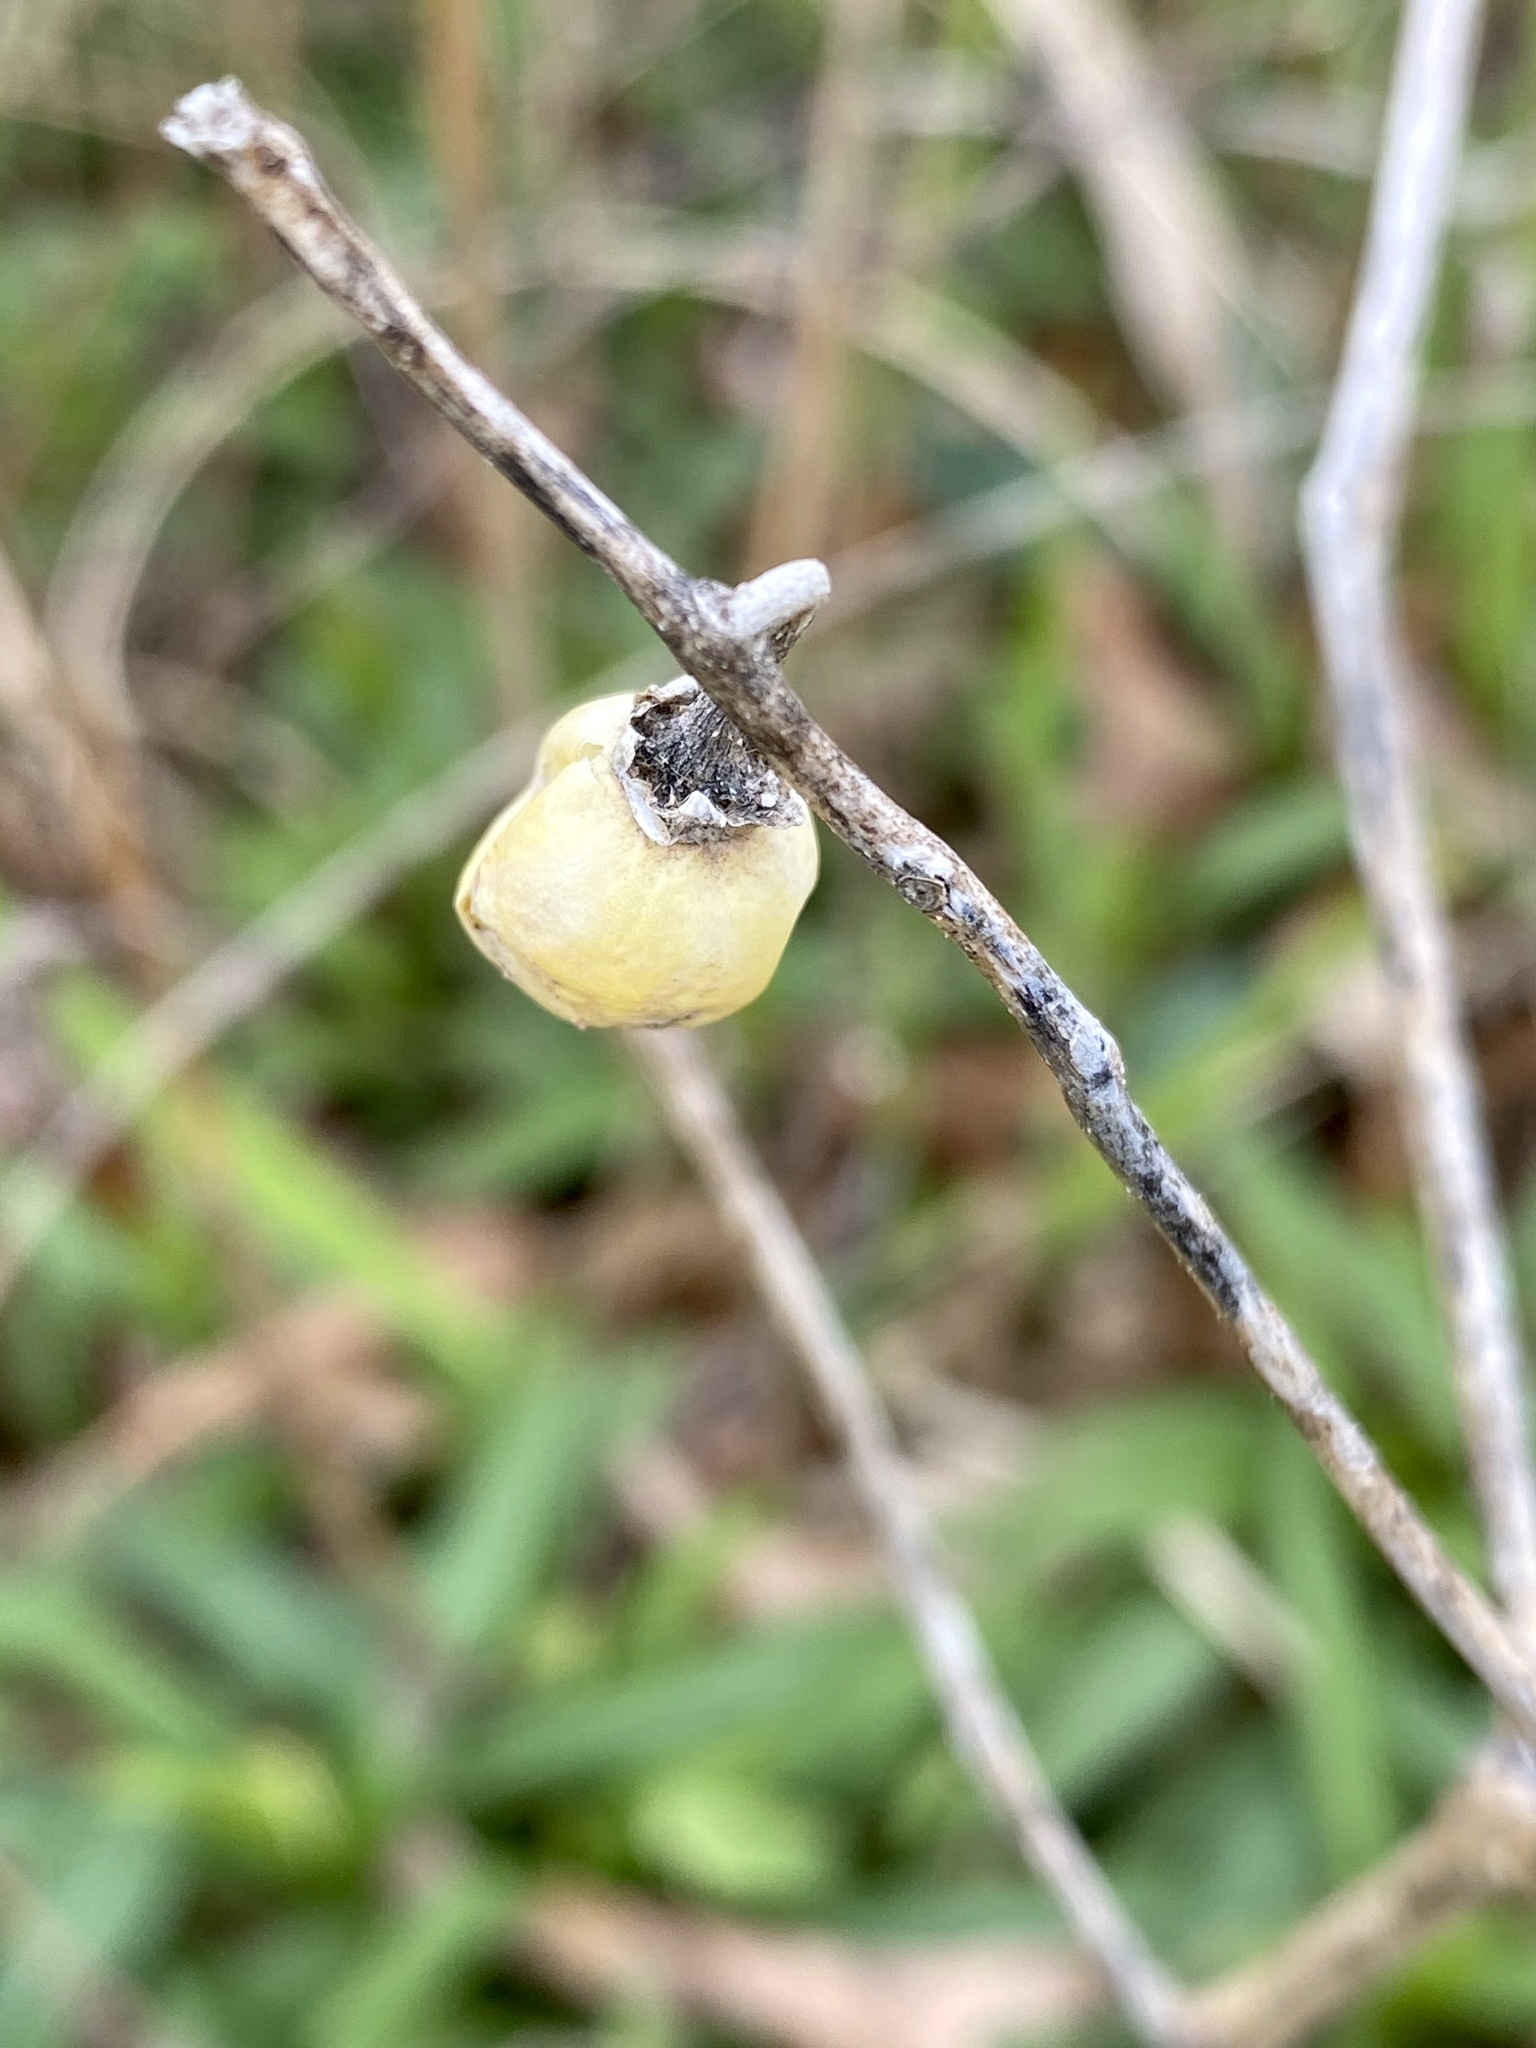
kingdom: Plantae
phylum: Tracheophyta
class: Magnoliopsida
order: Solanales
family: Solanaceae
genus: Solanum
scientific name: Solanum carolinense
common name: Horse-nettle
